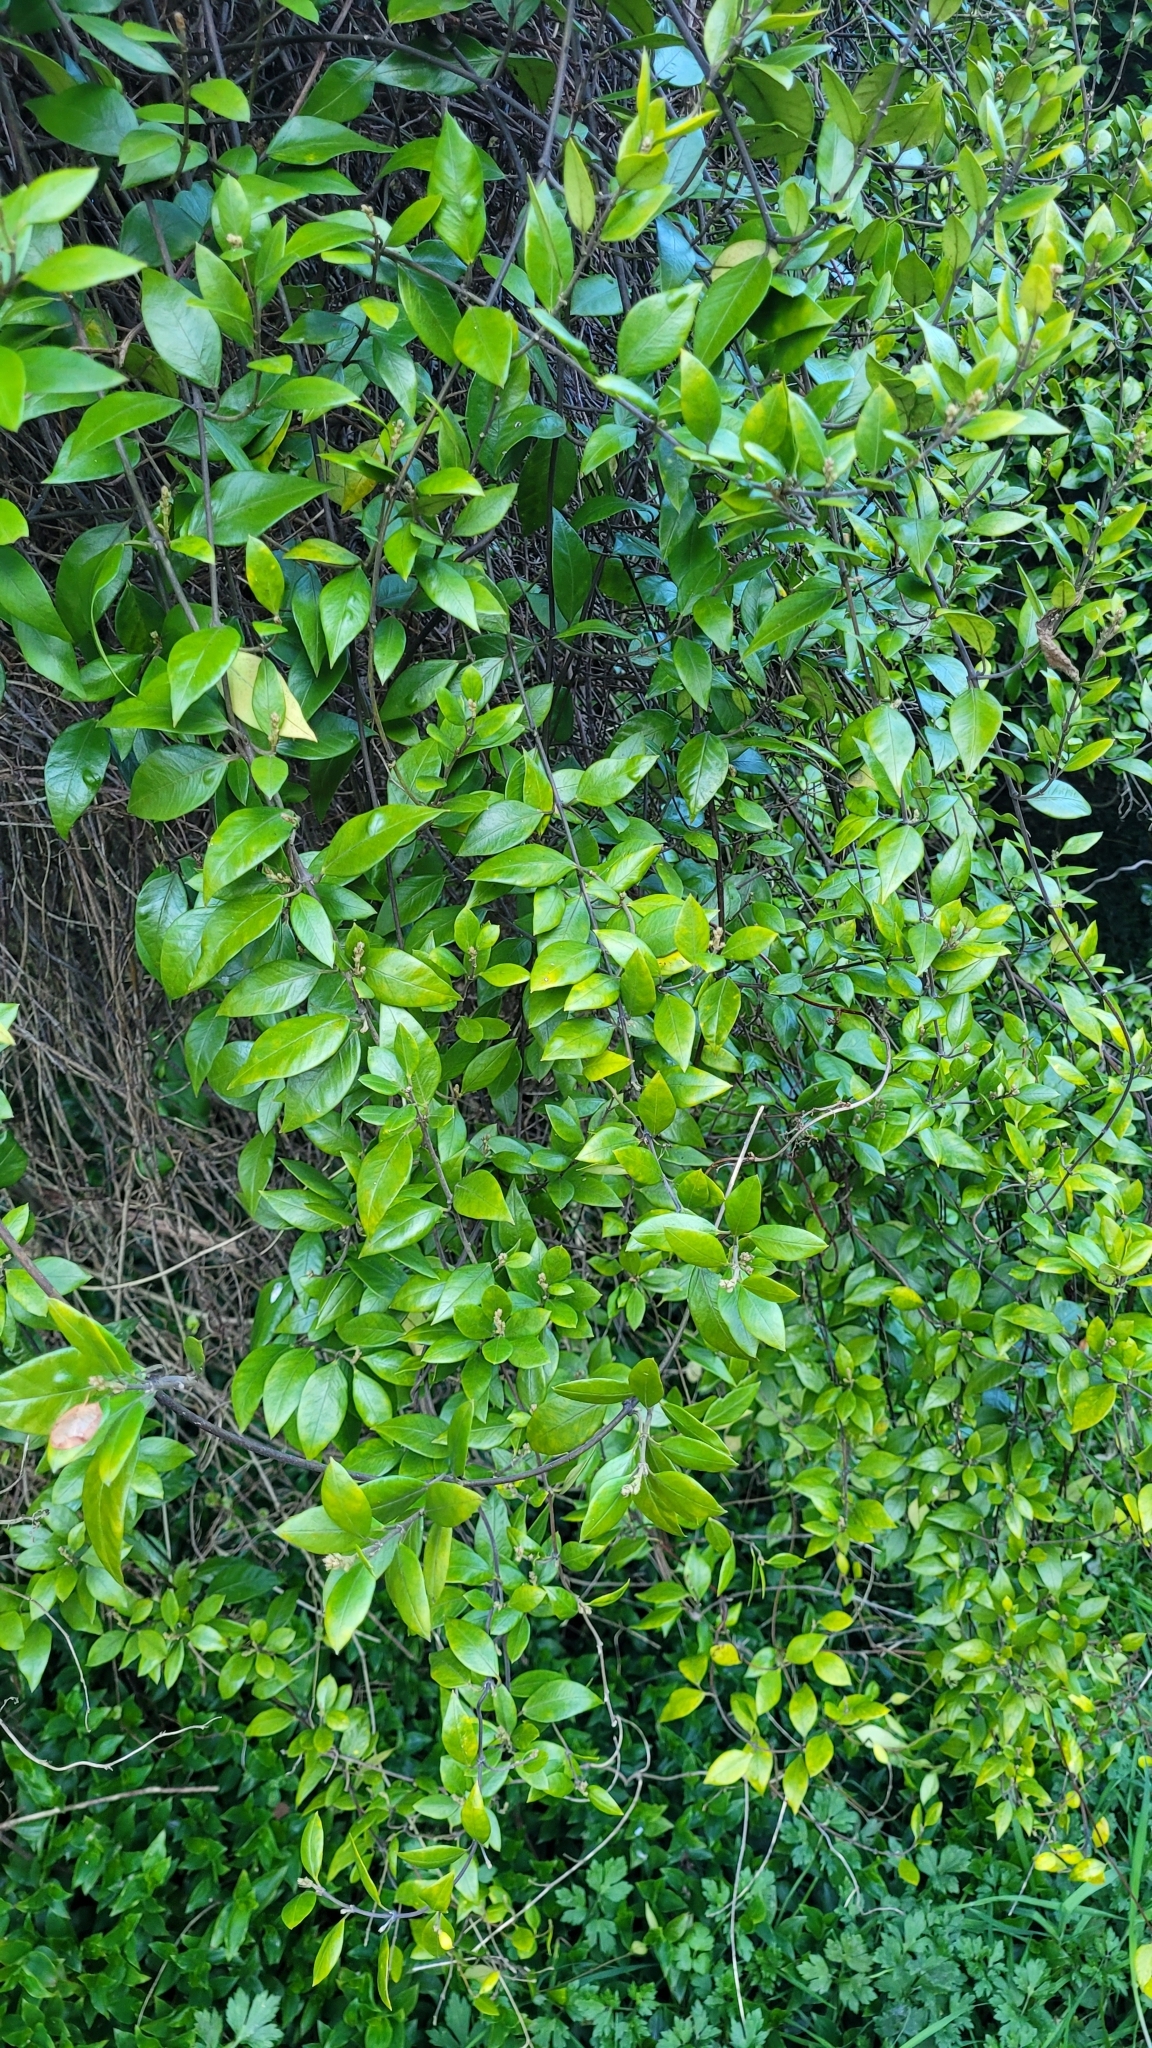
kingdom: Plantae
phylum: Tracheophyta
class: Magnoliopsida
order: Gentianales
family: Apocynaceae
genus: Parsonsia
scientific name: Parsonsia heterophylla
